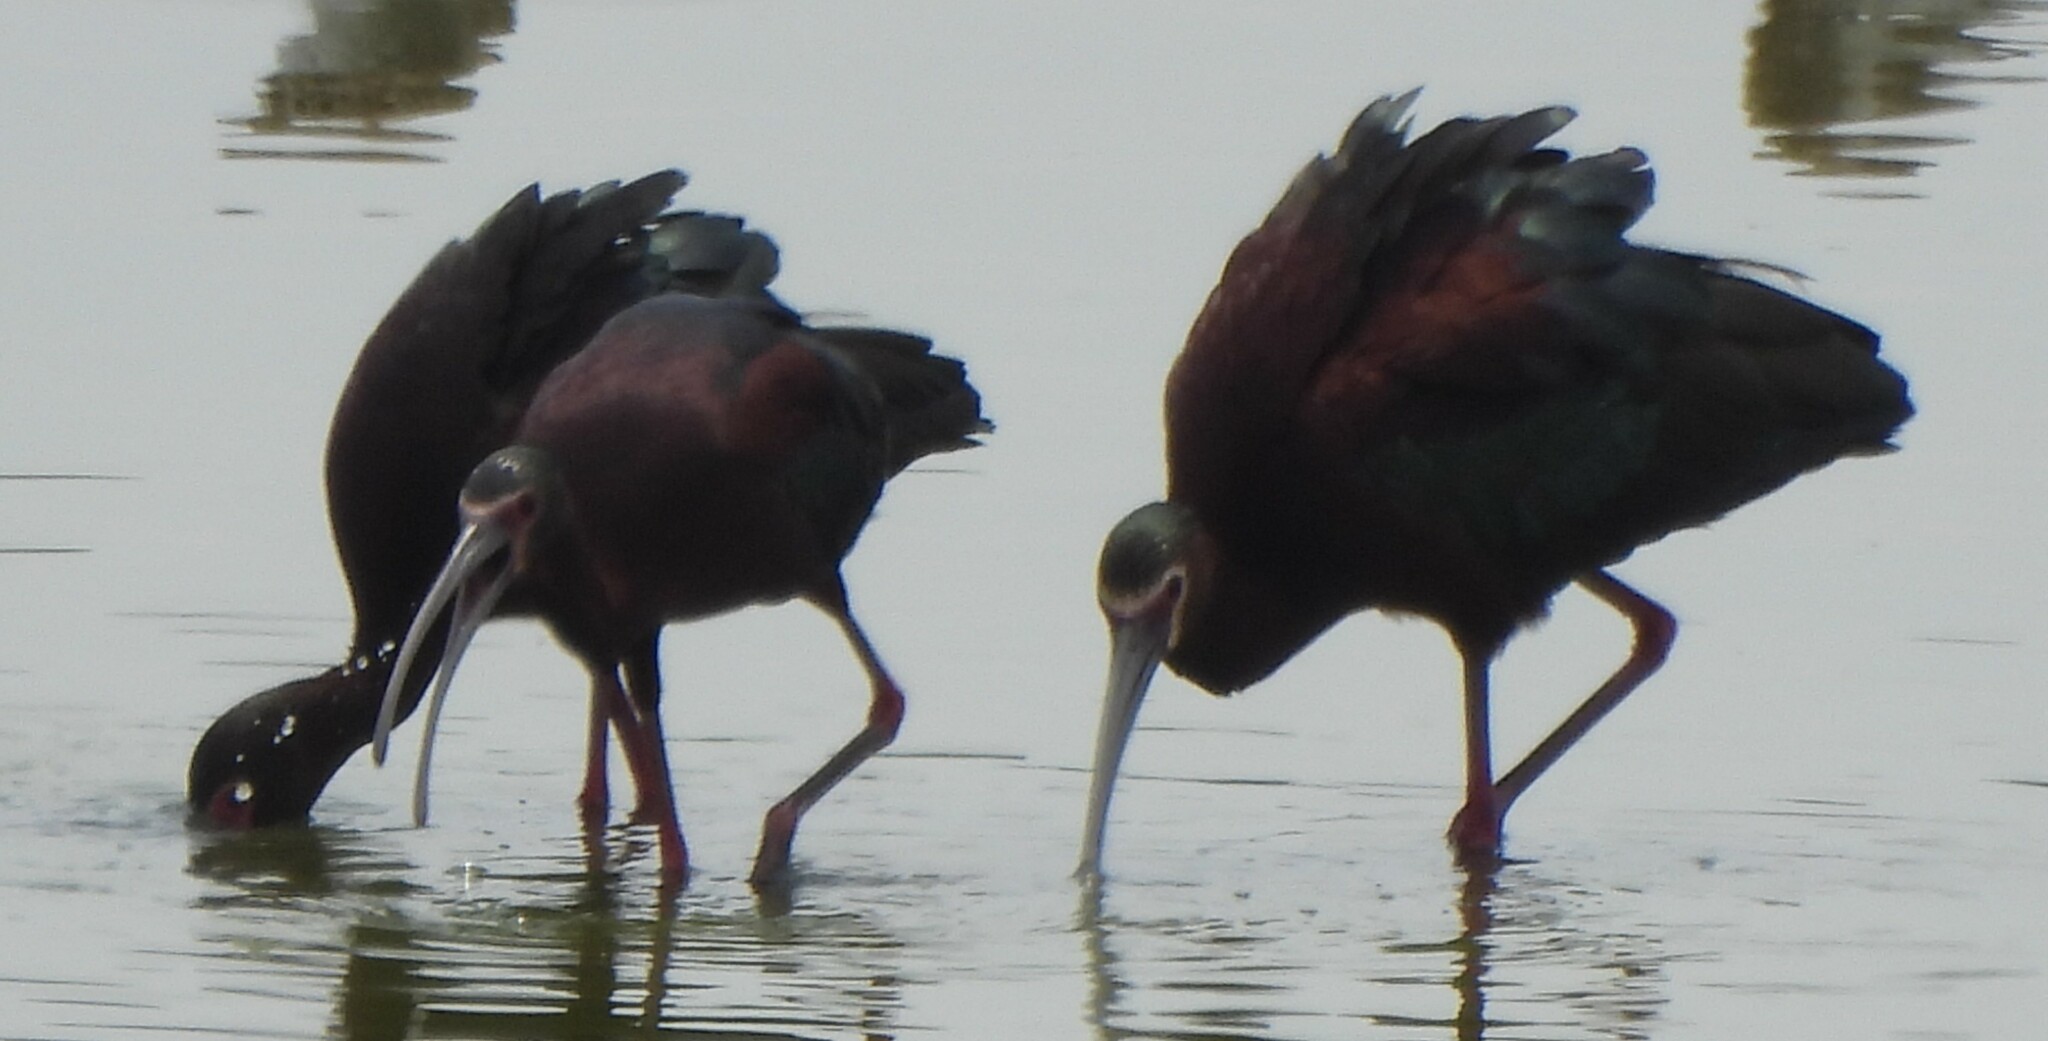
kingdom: Animalia
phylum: Chordata
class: Aves
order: Pelecaniformes
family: Threskiornithidae
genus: Plegadis
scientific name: Plegadis chihi
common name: White-faced ibis
